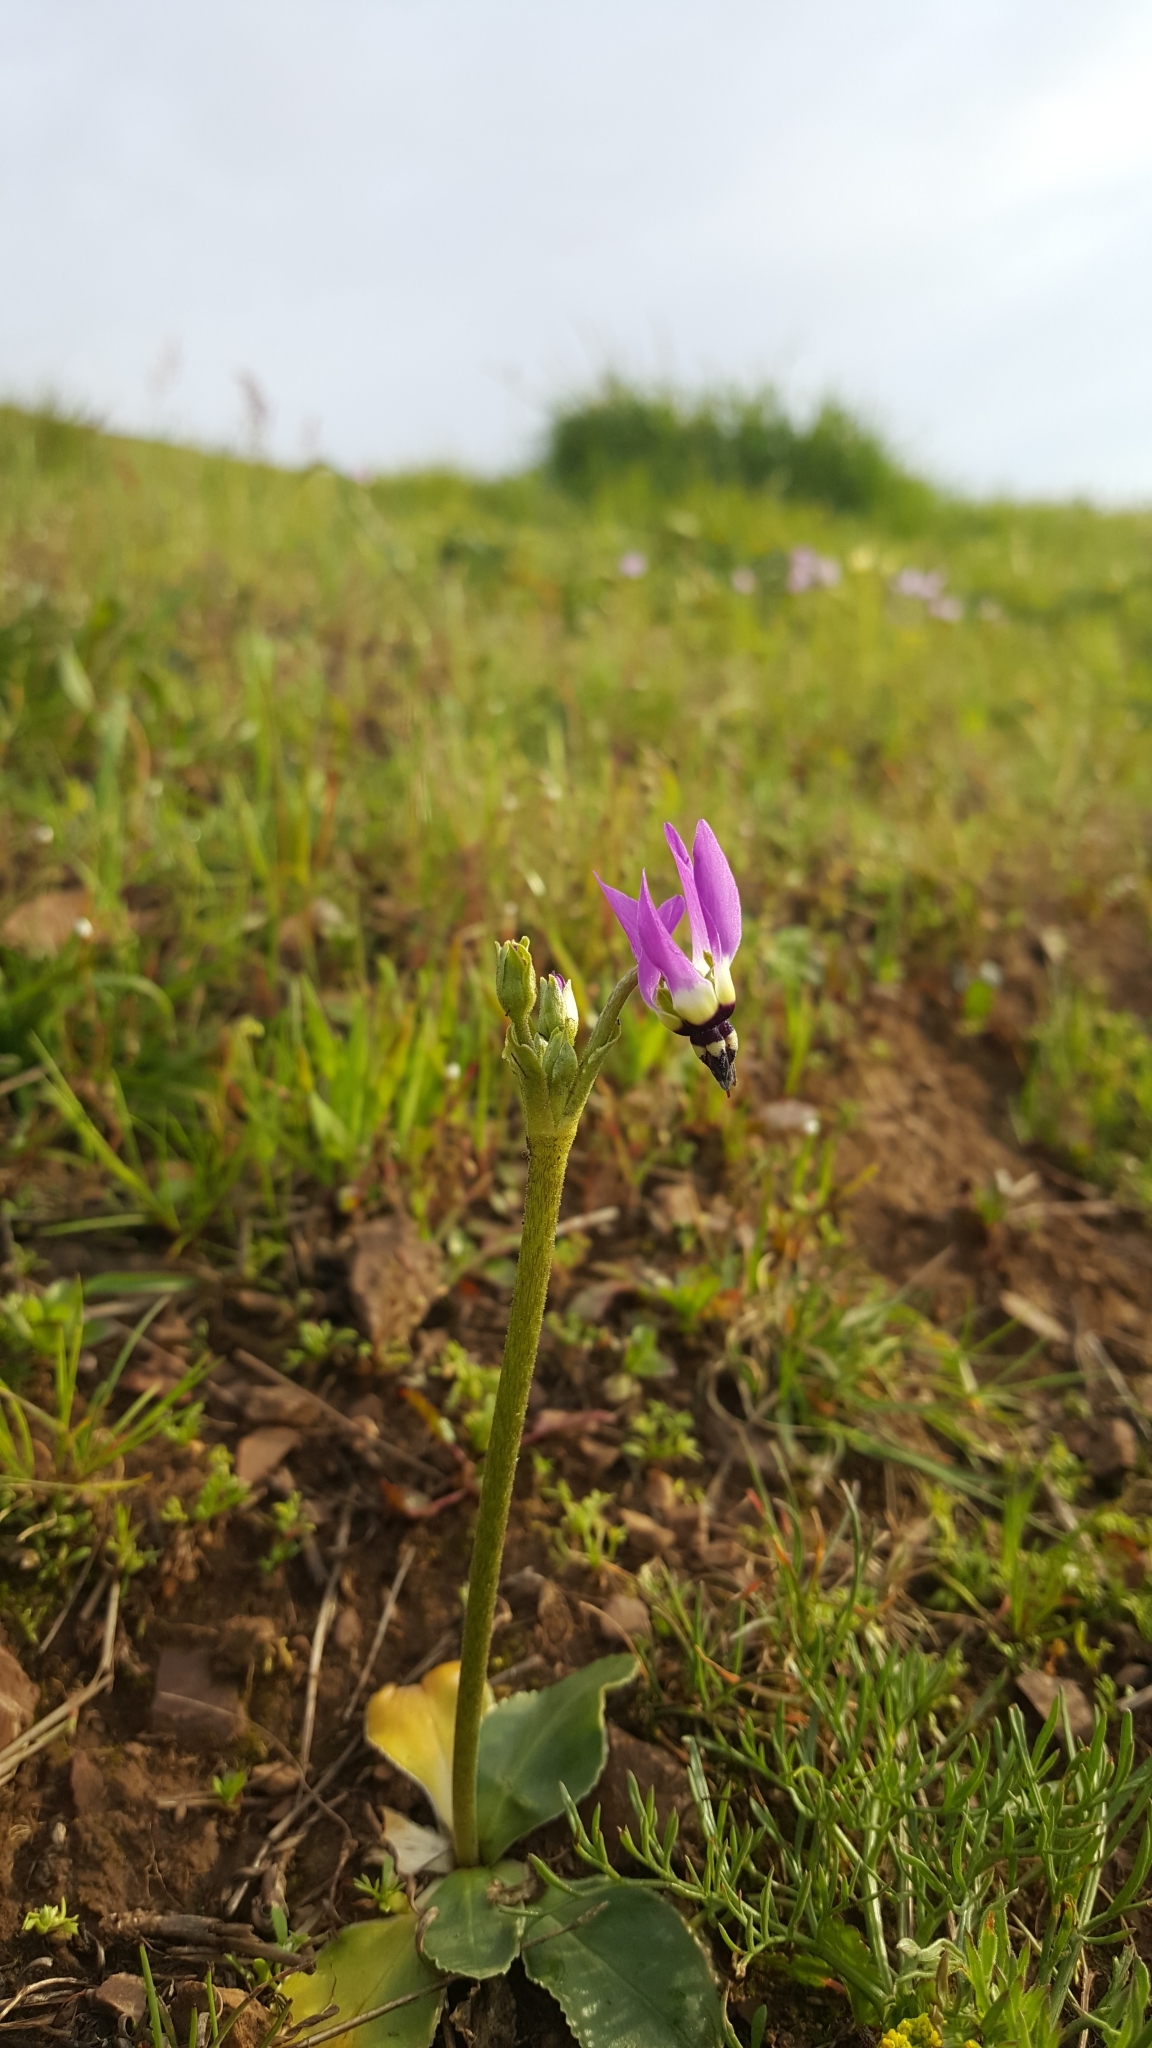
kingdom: Plantae
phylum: Tracheophyta
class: Magnoliopsida
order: Ericales
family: Primulaceae
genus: Dodecatheon
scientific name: Dodecatheon clevelandii
